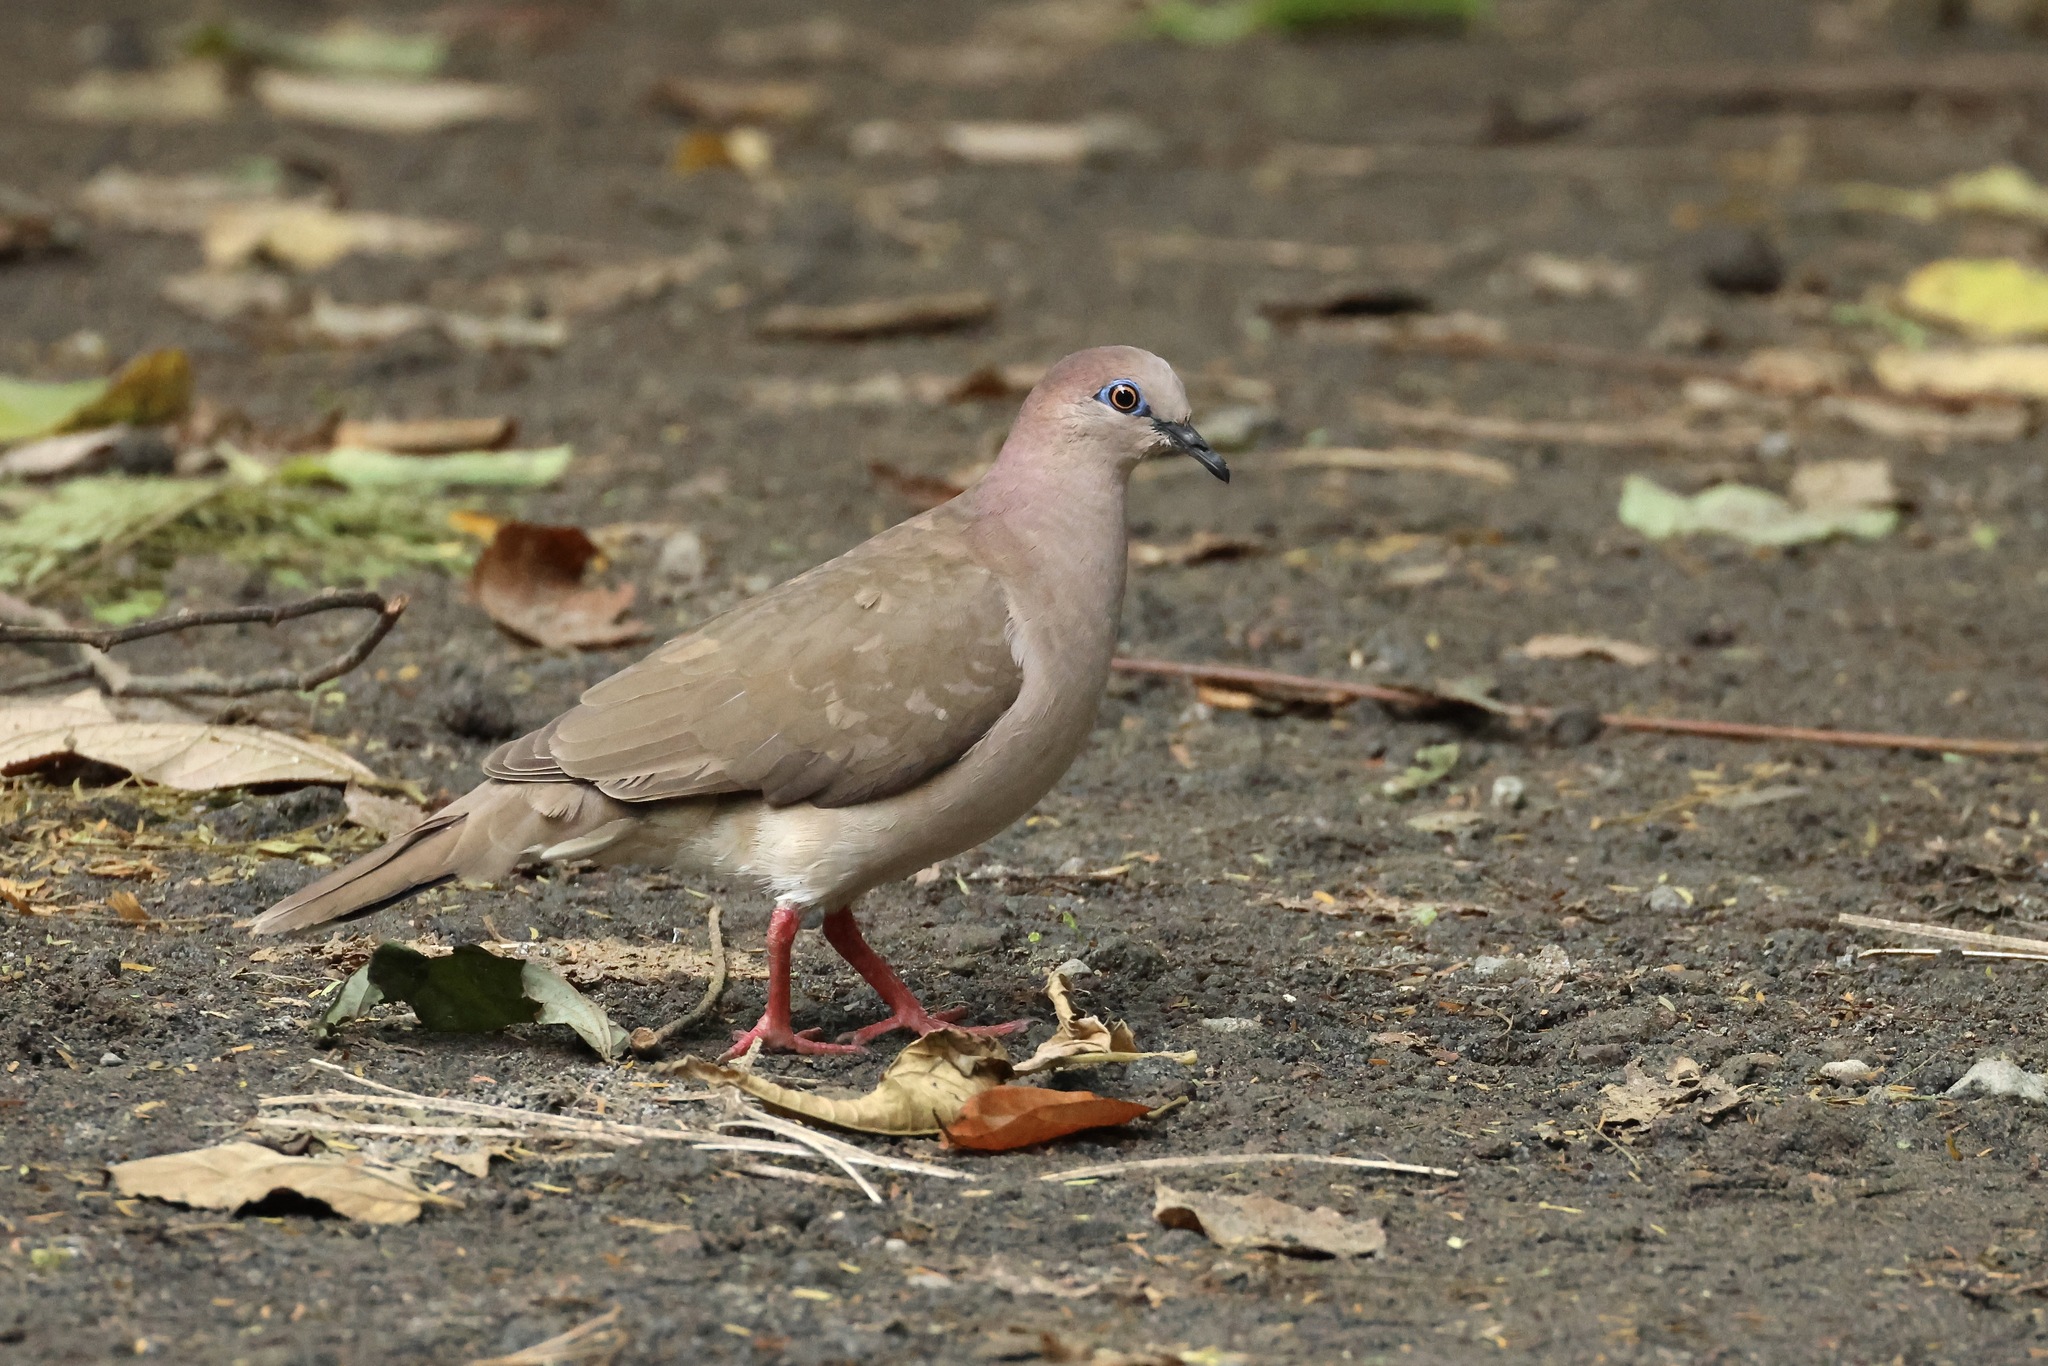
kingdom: Animalia
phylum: Chordata
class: Aves
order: Columbiformes
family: Columbidae
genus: Leptotila
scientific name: Leptotila verreauxi
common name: White-tipped dove
